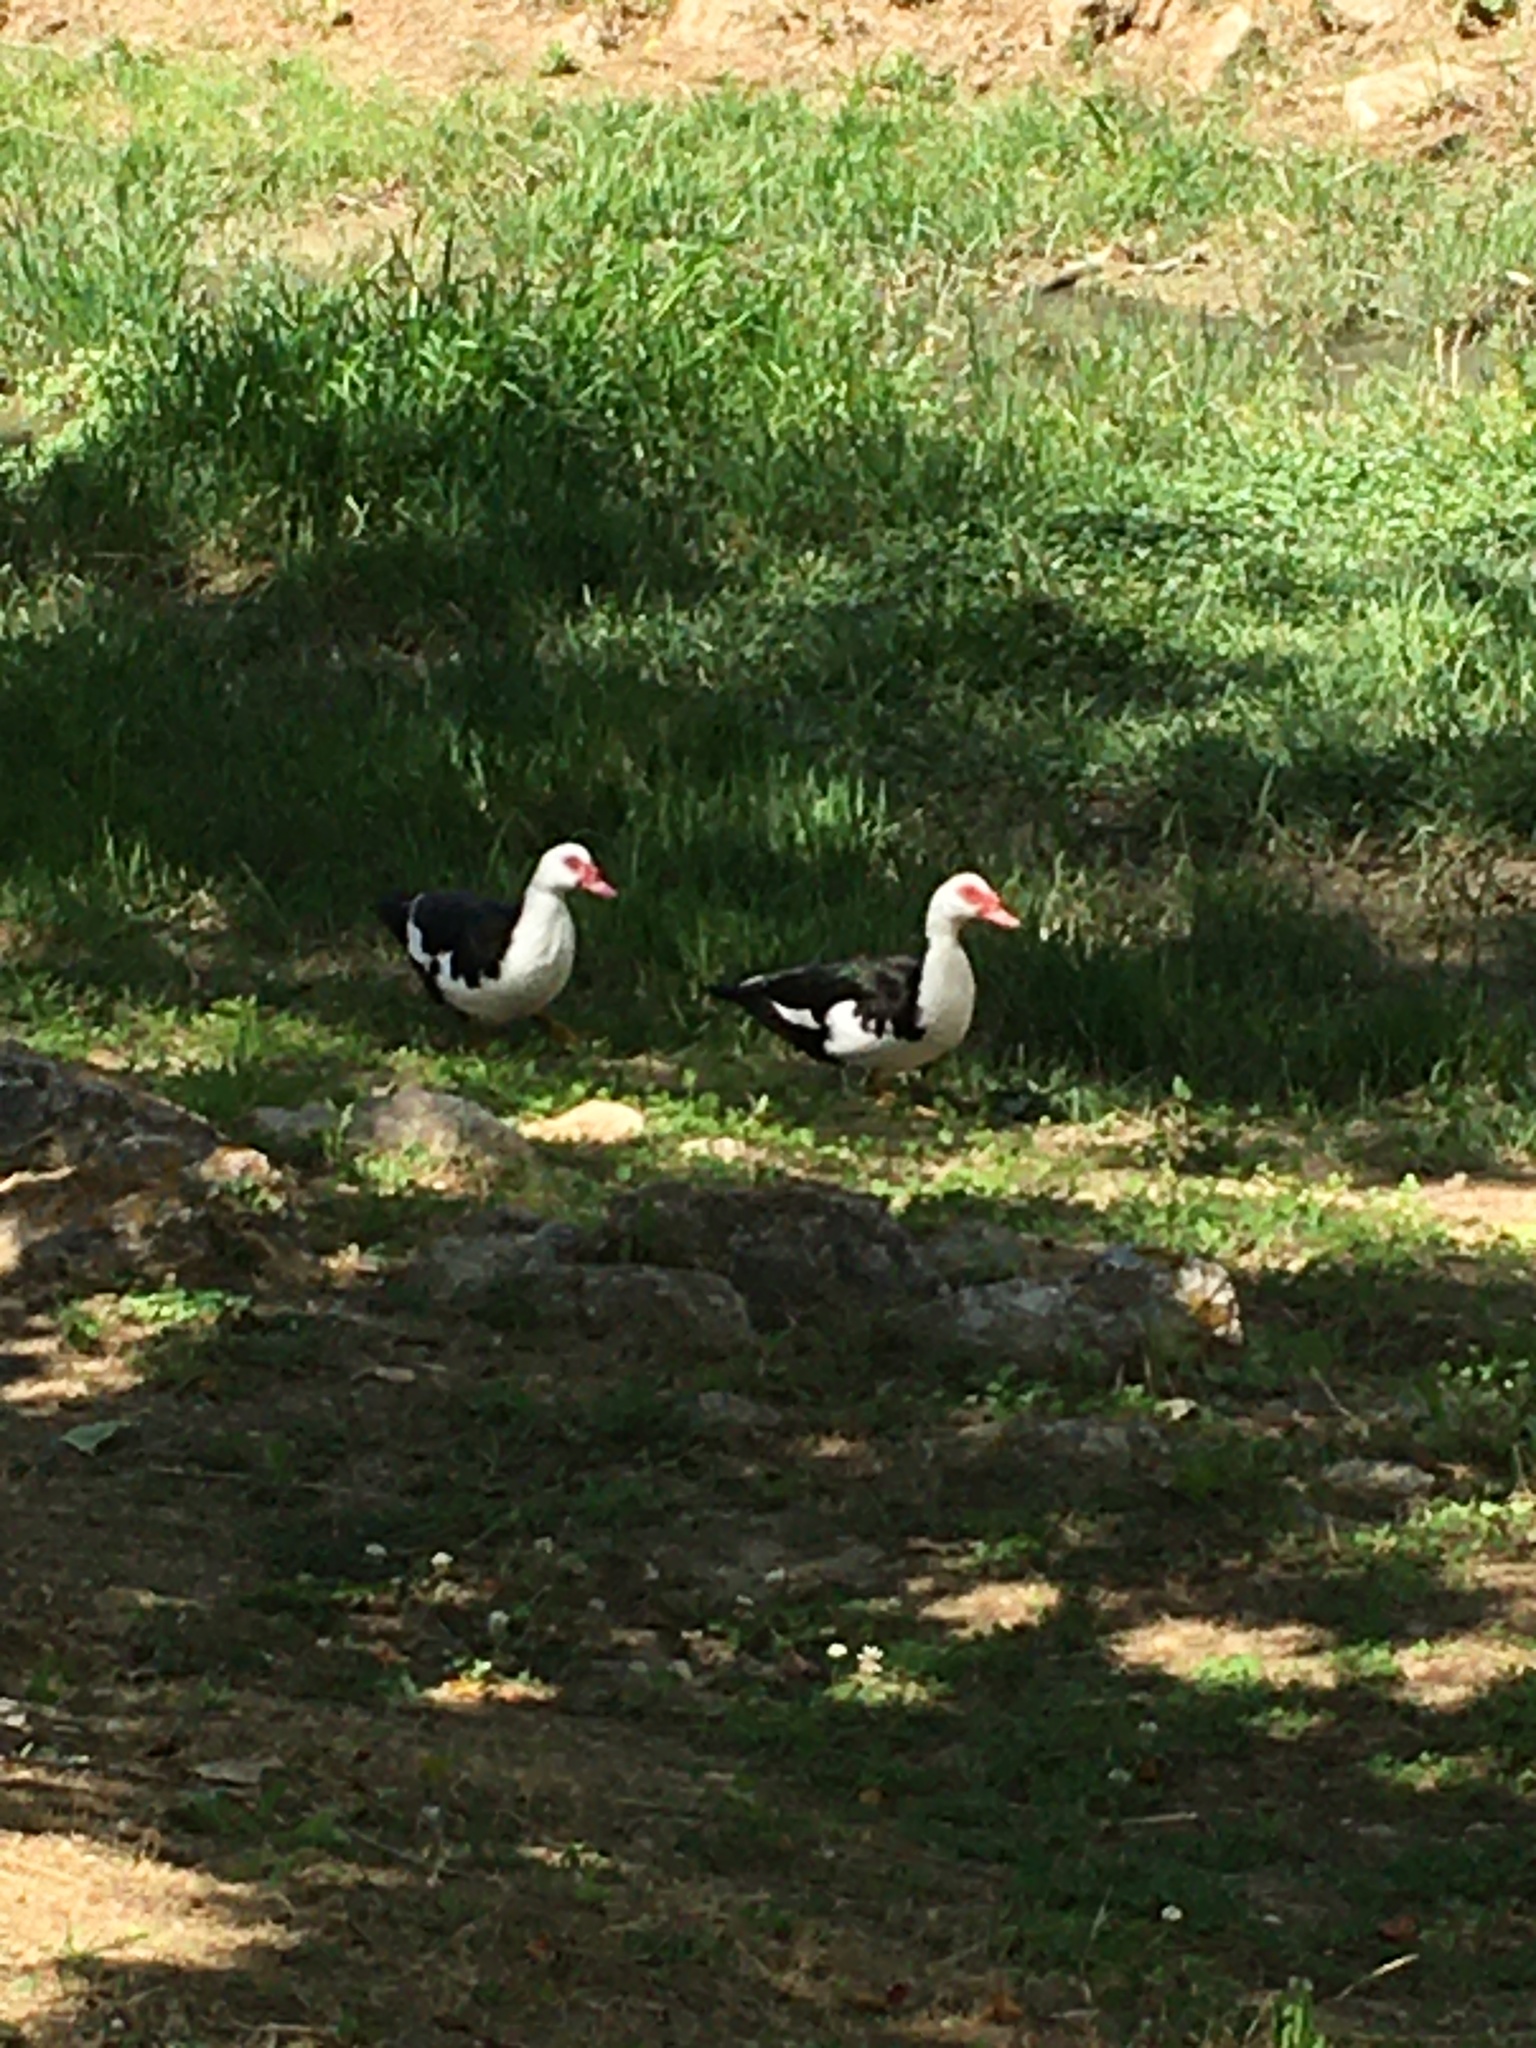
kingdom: Animalia
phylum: Chordata
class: Aves
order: Anseriformes
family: Anatidae
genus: Cairina
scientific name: Cairina moschata
